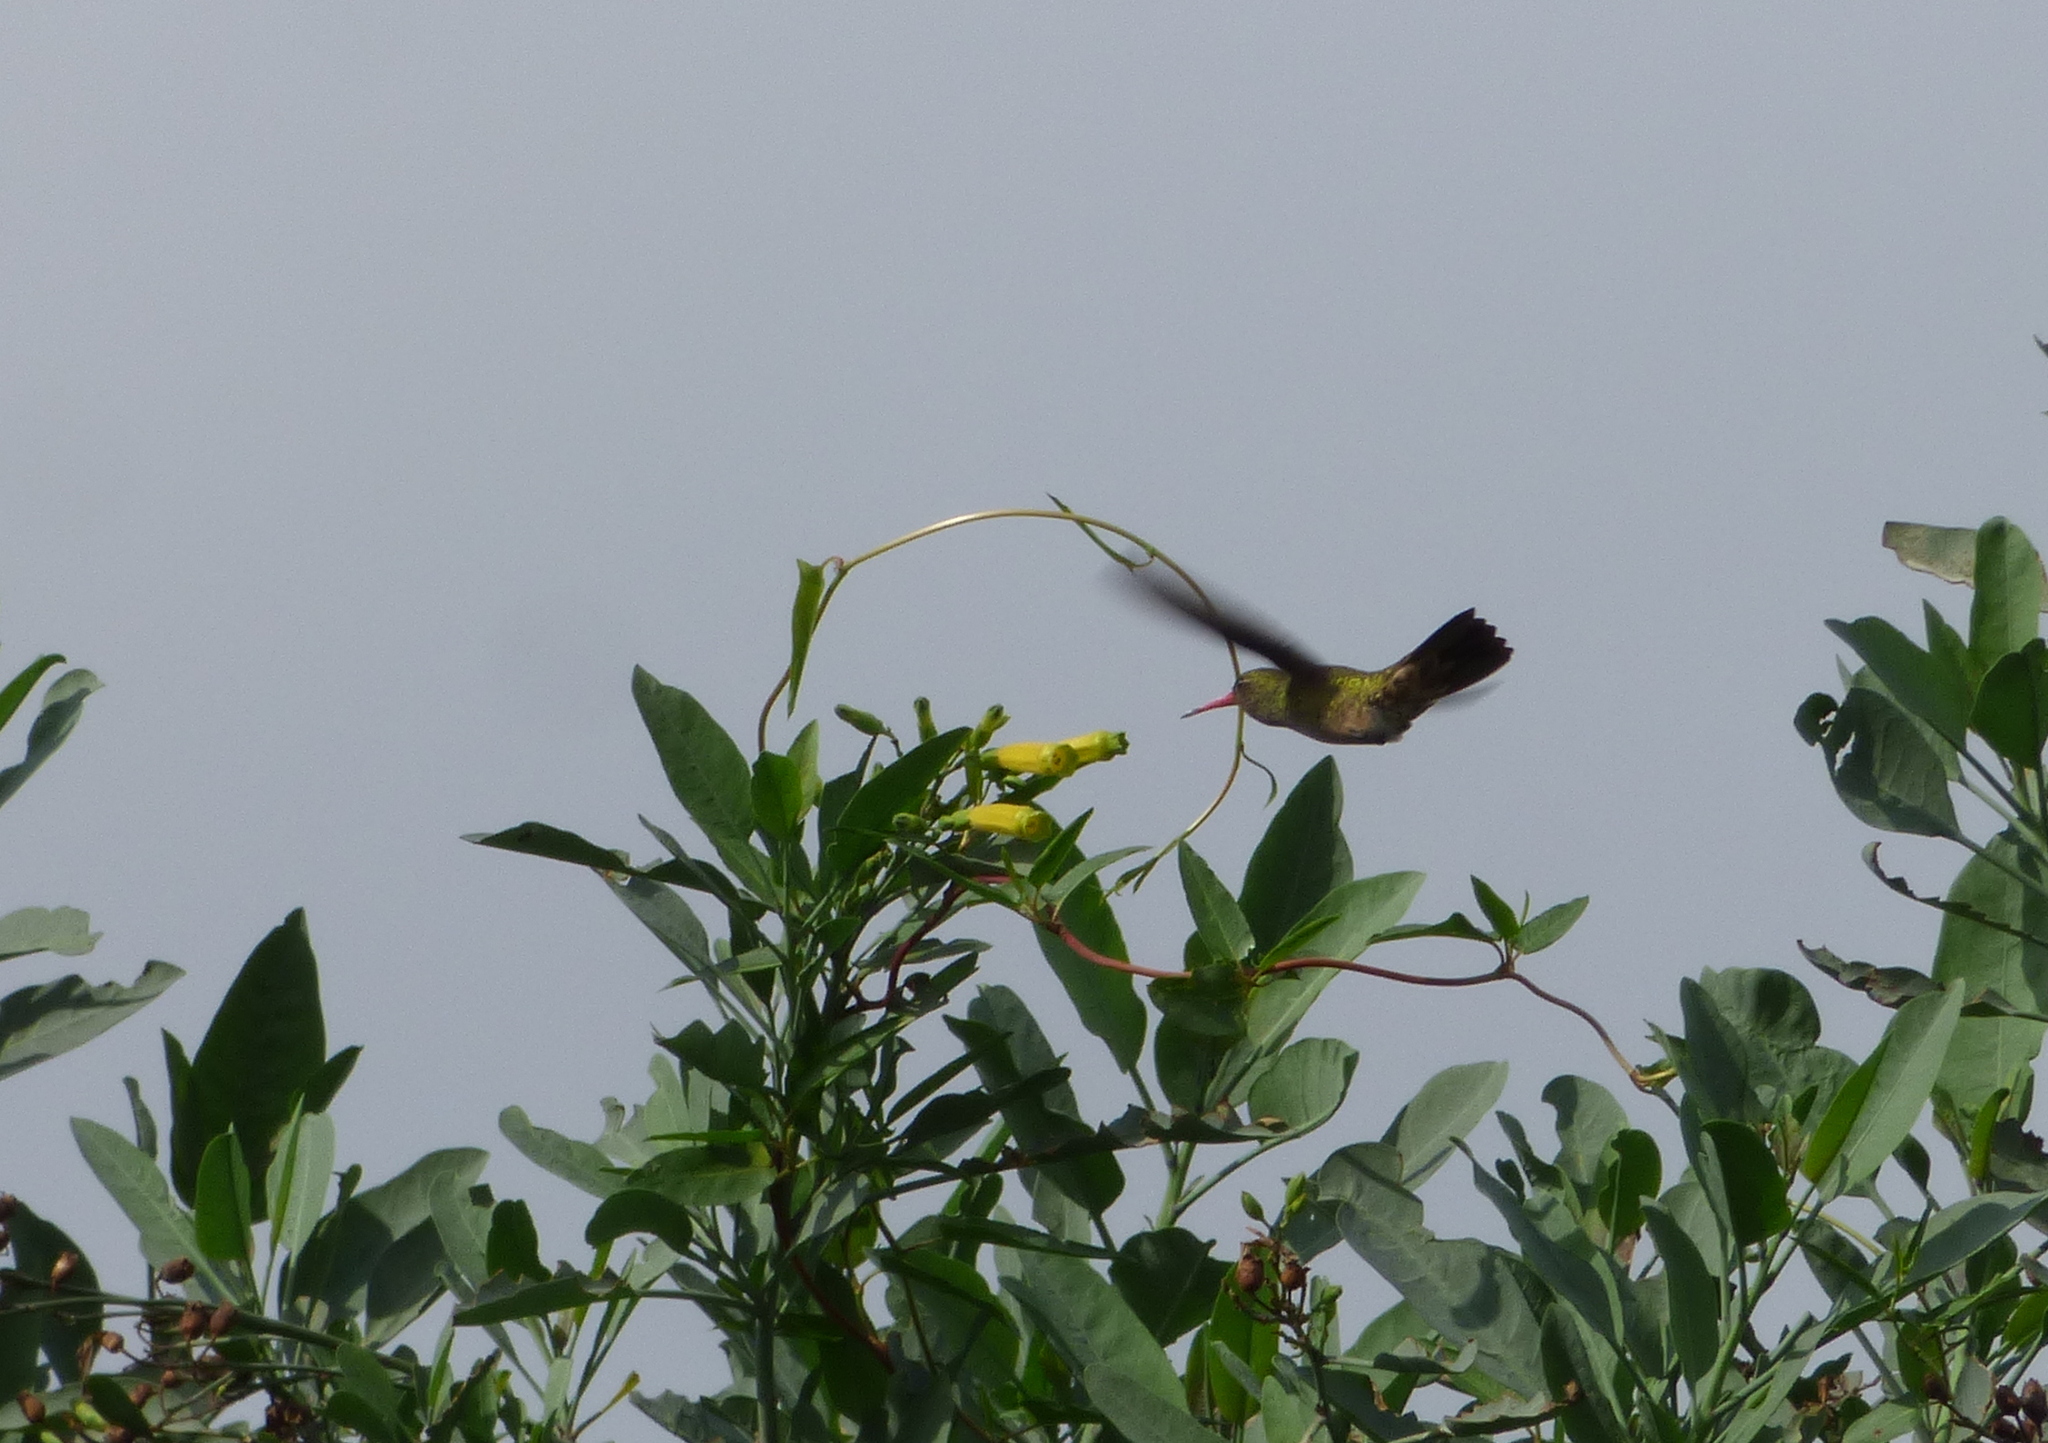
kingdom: Animalia
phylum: Chordata
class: Aves
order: Apodiformes
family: Trochilidae
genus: Hylocharis
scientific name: Hylocharis chrysura
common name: Gilded sapphire
